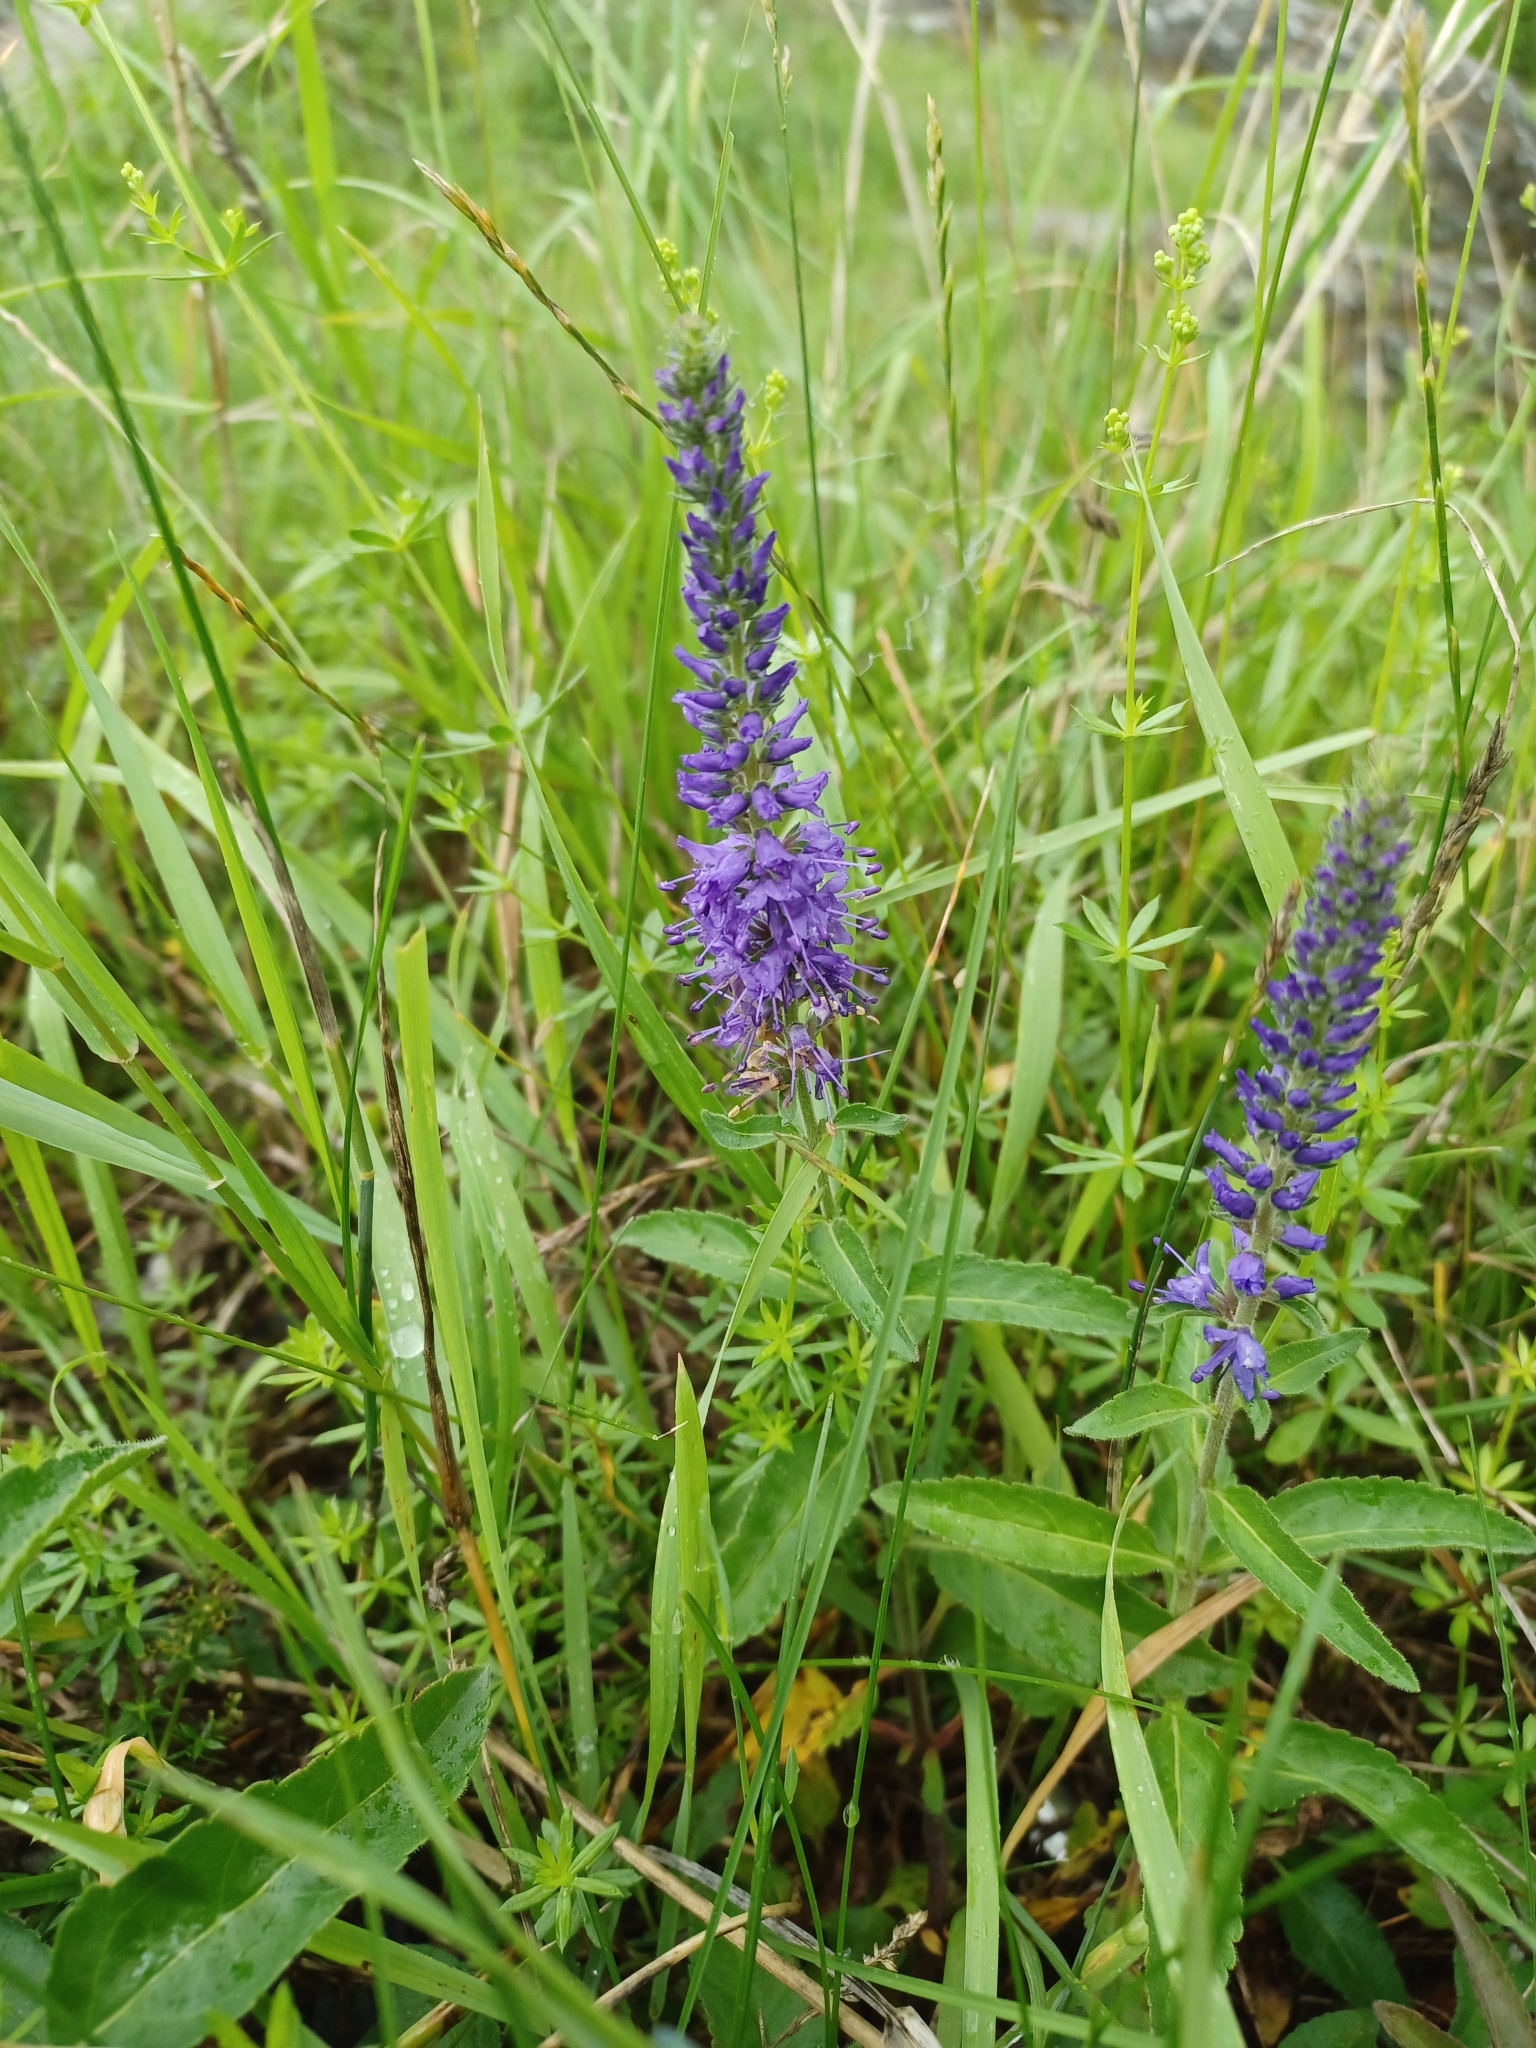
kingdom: Plantae
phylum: Tracheophyta
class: Magnoliopsida
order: Lamiales
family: Plantaginaceae
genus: Veronica
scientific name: Veronica spicata
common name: Spiked speedwell
